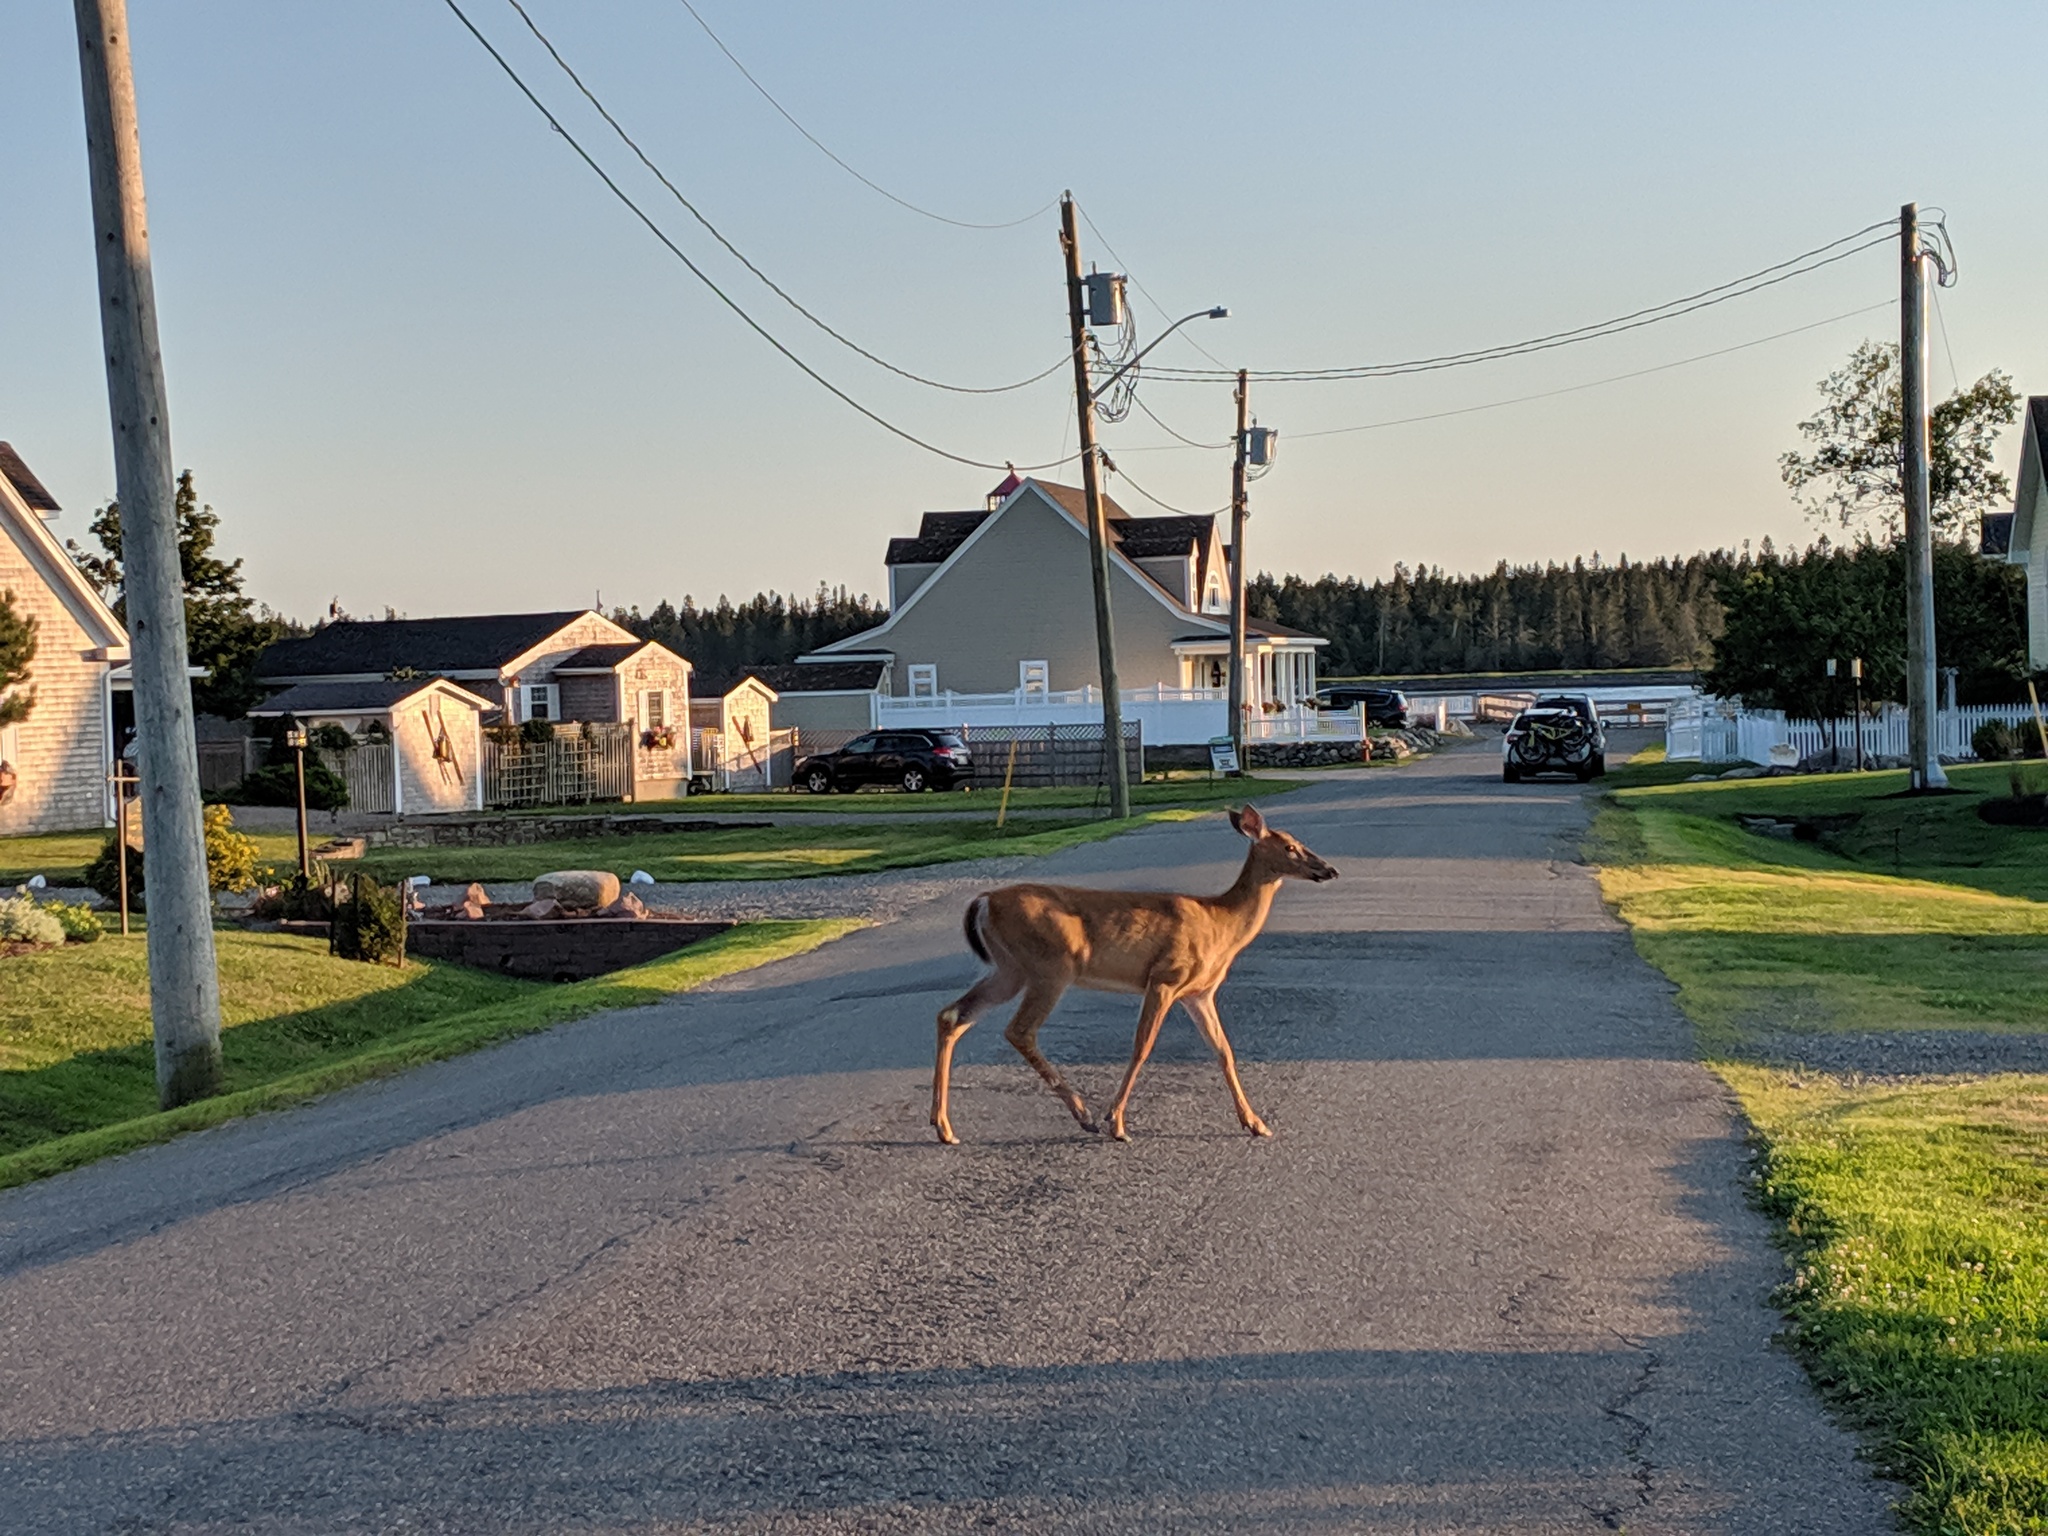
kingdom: Animalia
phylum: Chordata
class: Mammalia
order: Artiodactyla
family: Cervidae
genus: Odocoileus
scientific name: Odocoileus virginianus
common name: White-tailed deer
